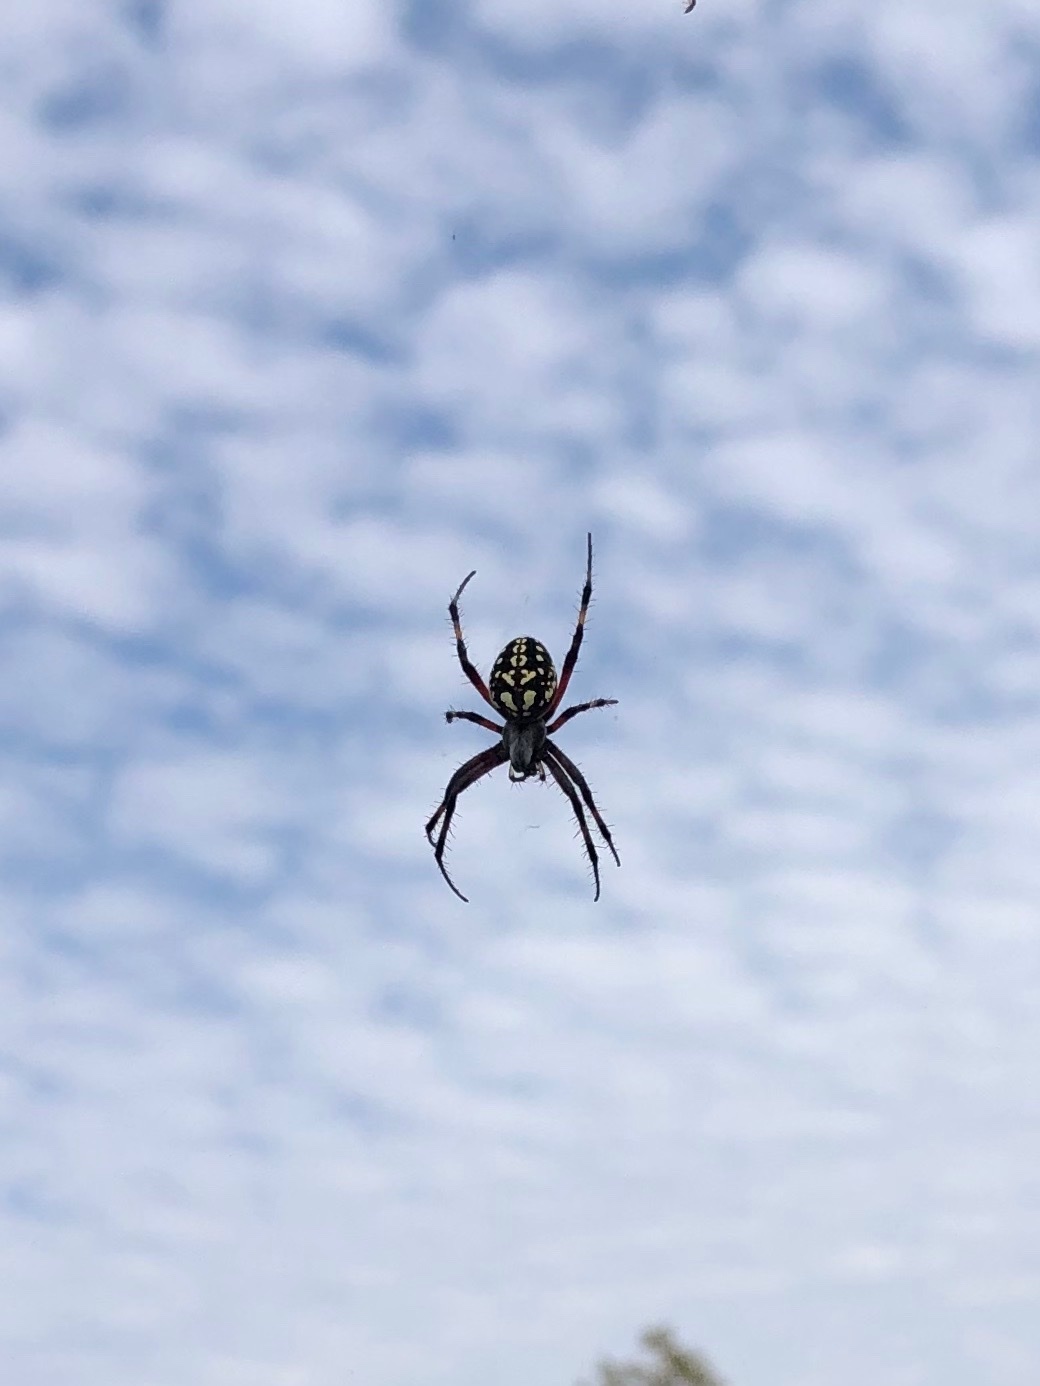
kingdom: Animalia
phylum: Arthropoda
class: Arachnida
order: Araneae
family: Araneidae
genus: Neoscona
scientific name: Neoscona oaxacensis
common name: Orb weavers
